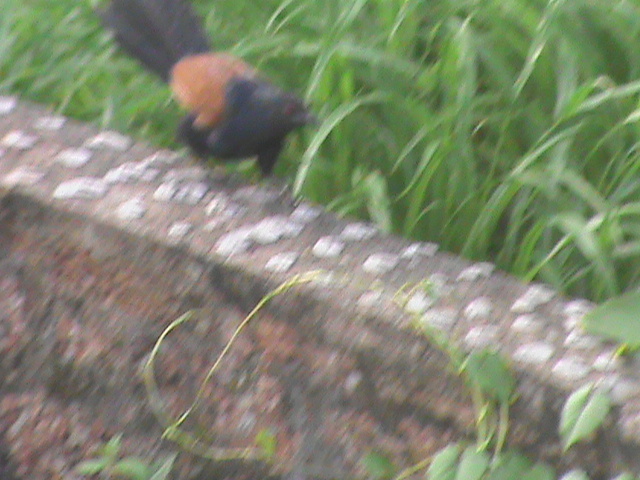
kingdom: Animalia
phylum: Chordata
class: Aves
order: Cuculiformes
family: Cuculidae
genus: Centropus
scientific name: Centropus sinensis
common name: Greater coucal
